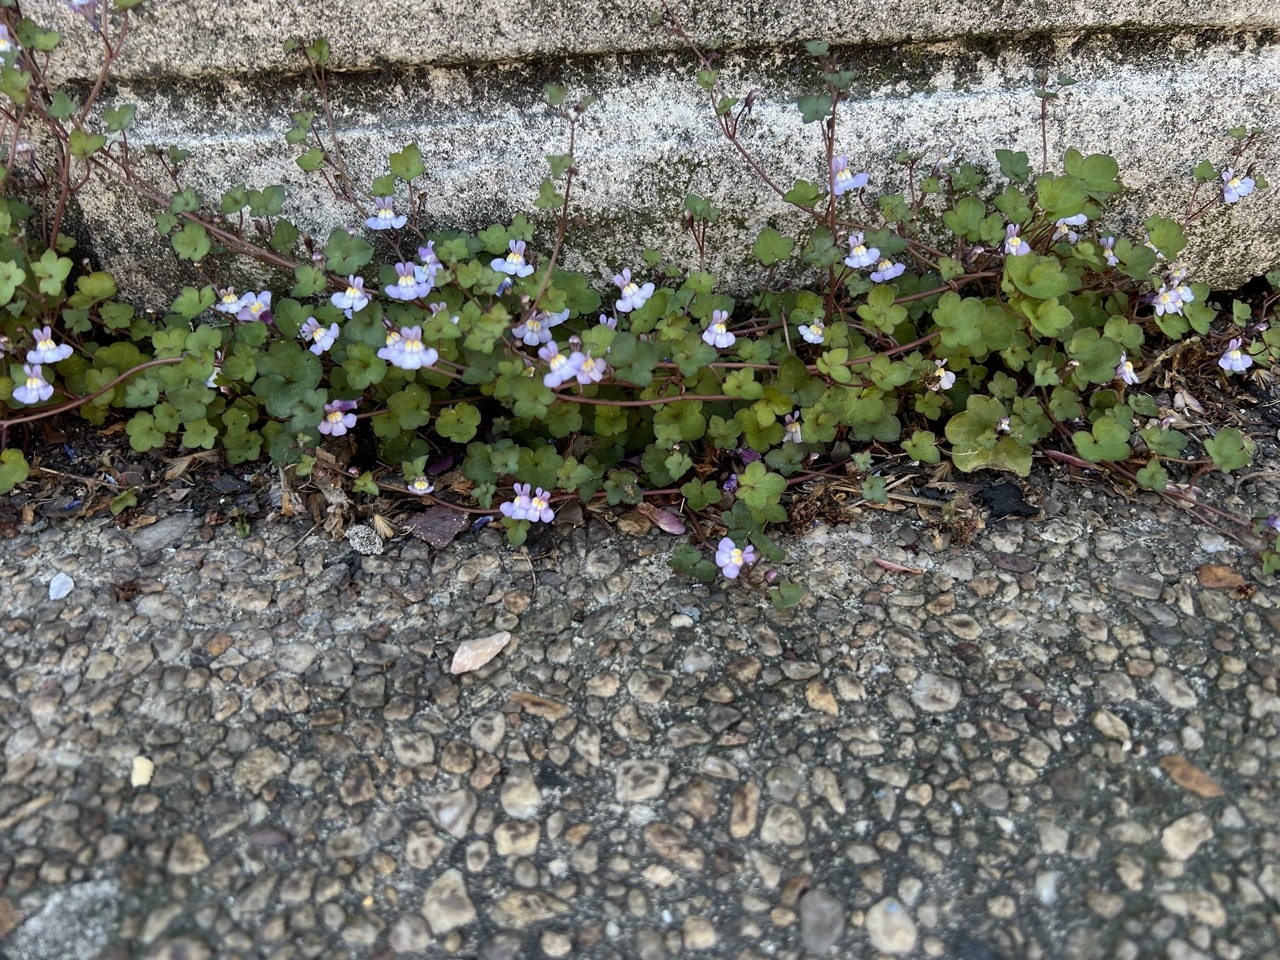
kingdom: Plantae
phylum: Tracheophyta
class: Magnoliopsida
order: Lamiales
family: Plantaginaceae
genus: Cymbalaria
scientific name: Cymbalaria muralis
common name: Ivy-leaved toadflax
